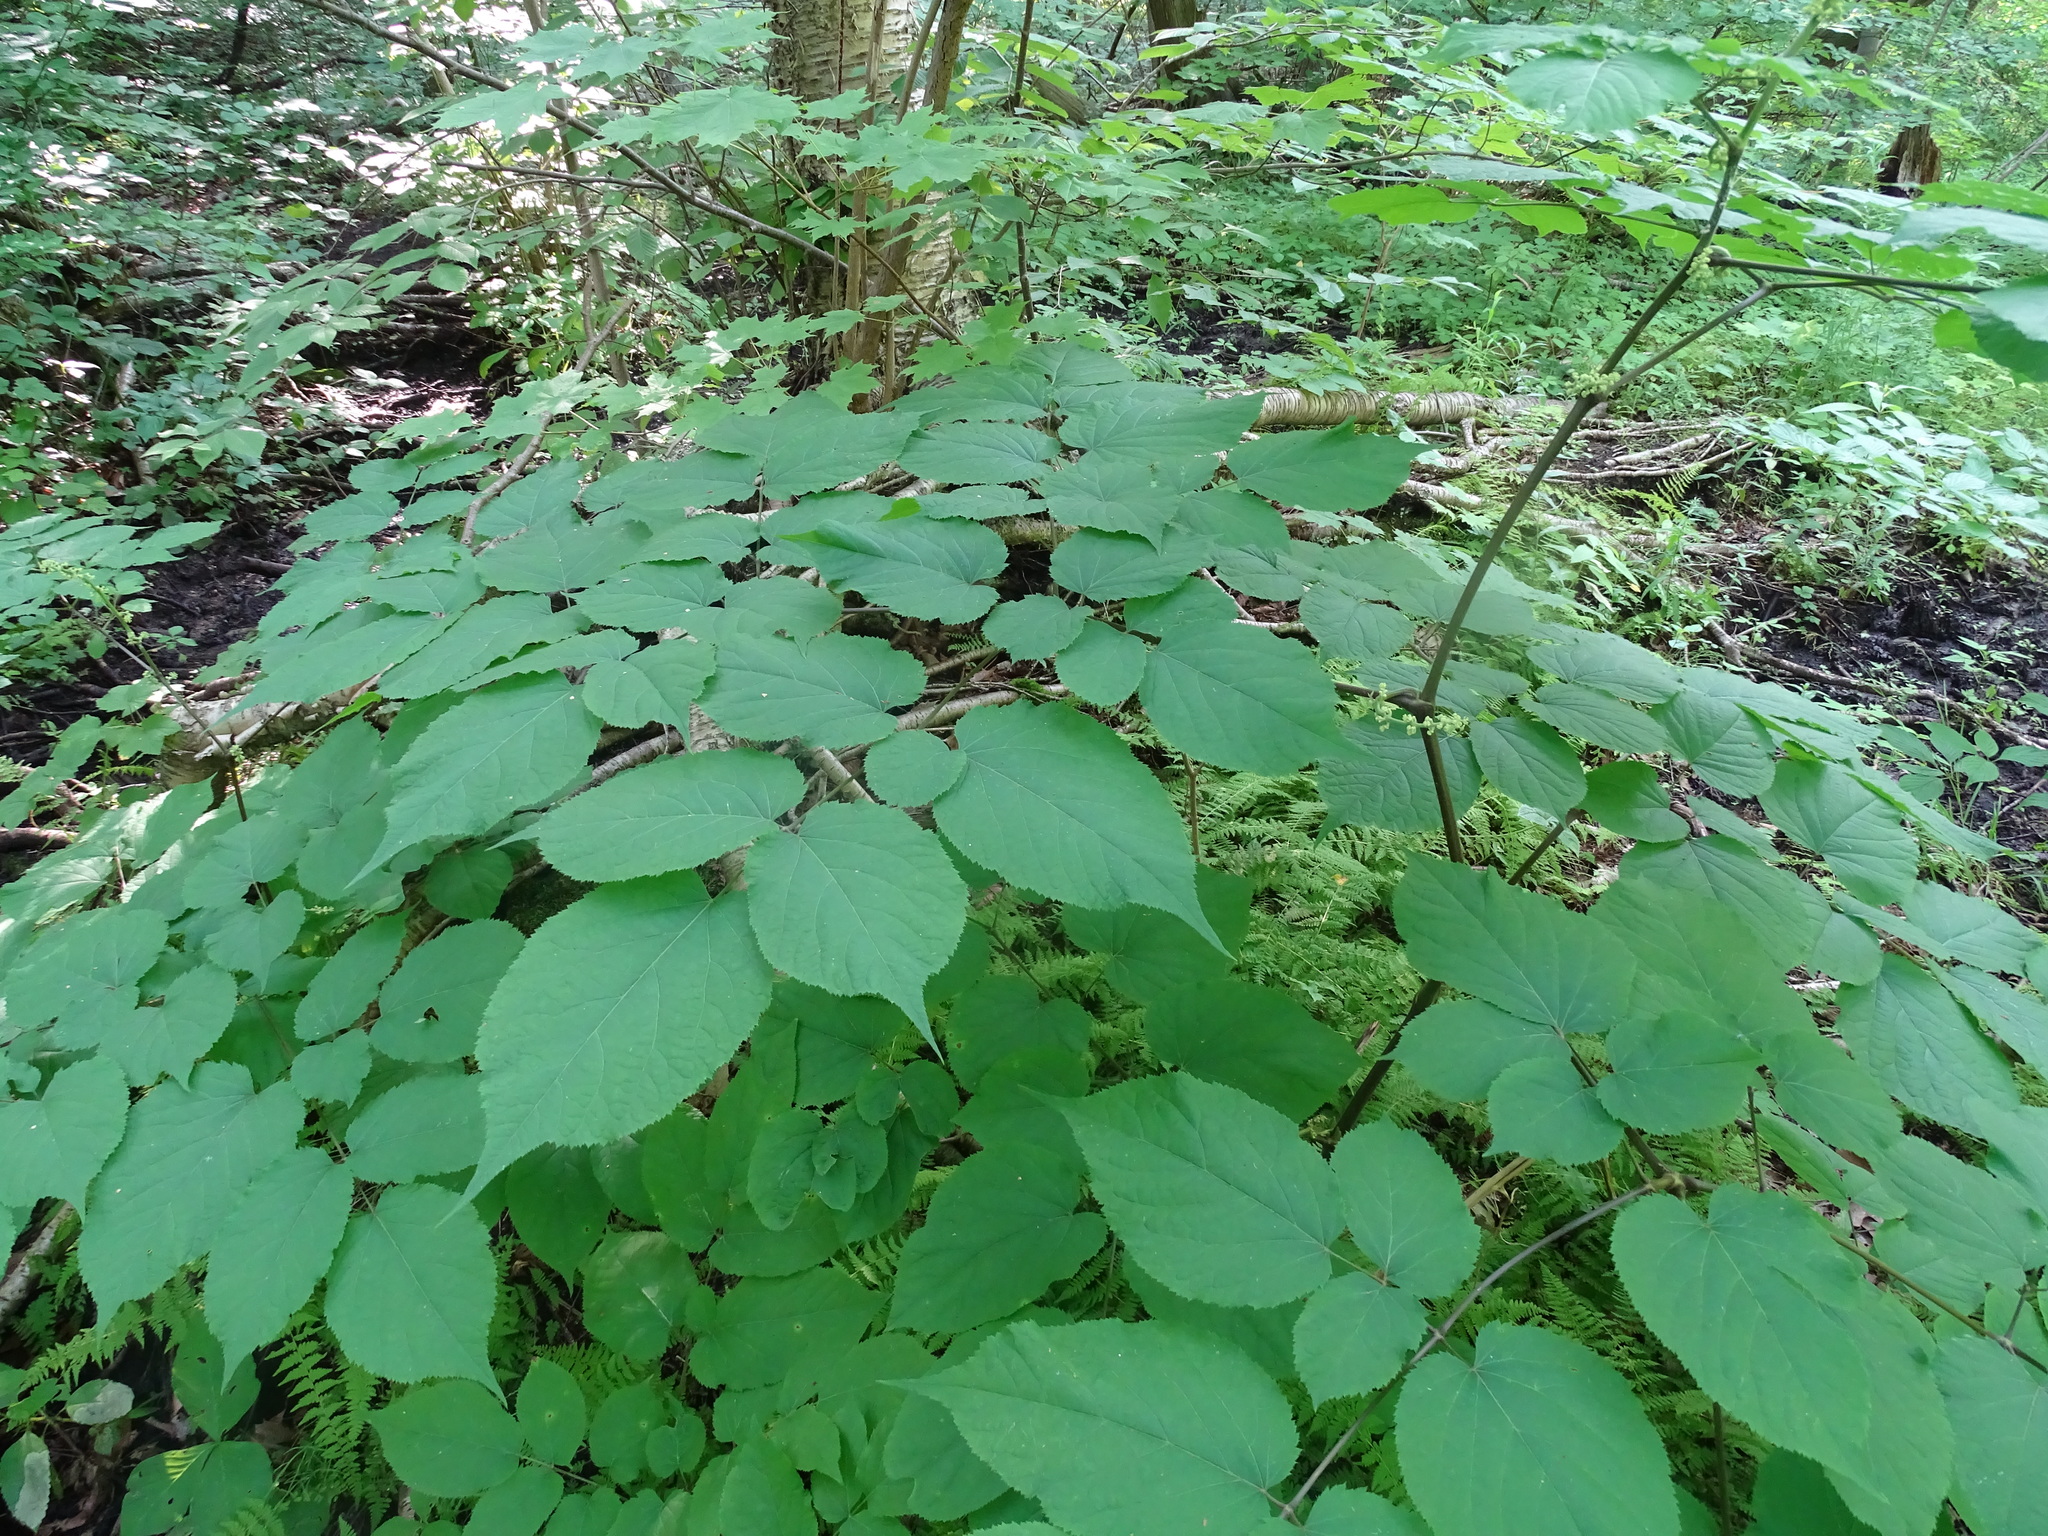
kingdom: Plantae
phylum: Tracheophyta
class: Magnoliopsida
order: Apiales
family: Araliaceae
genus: Aralia
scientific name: Aralia racemosa
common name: American-spikenard
